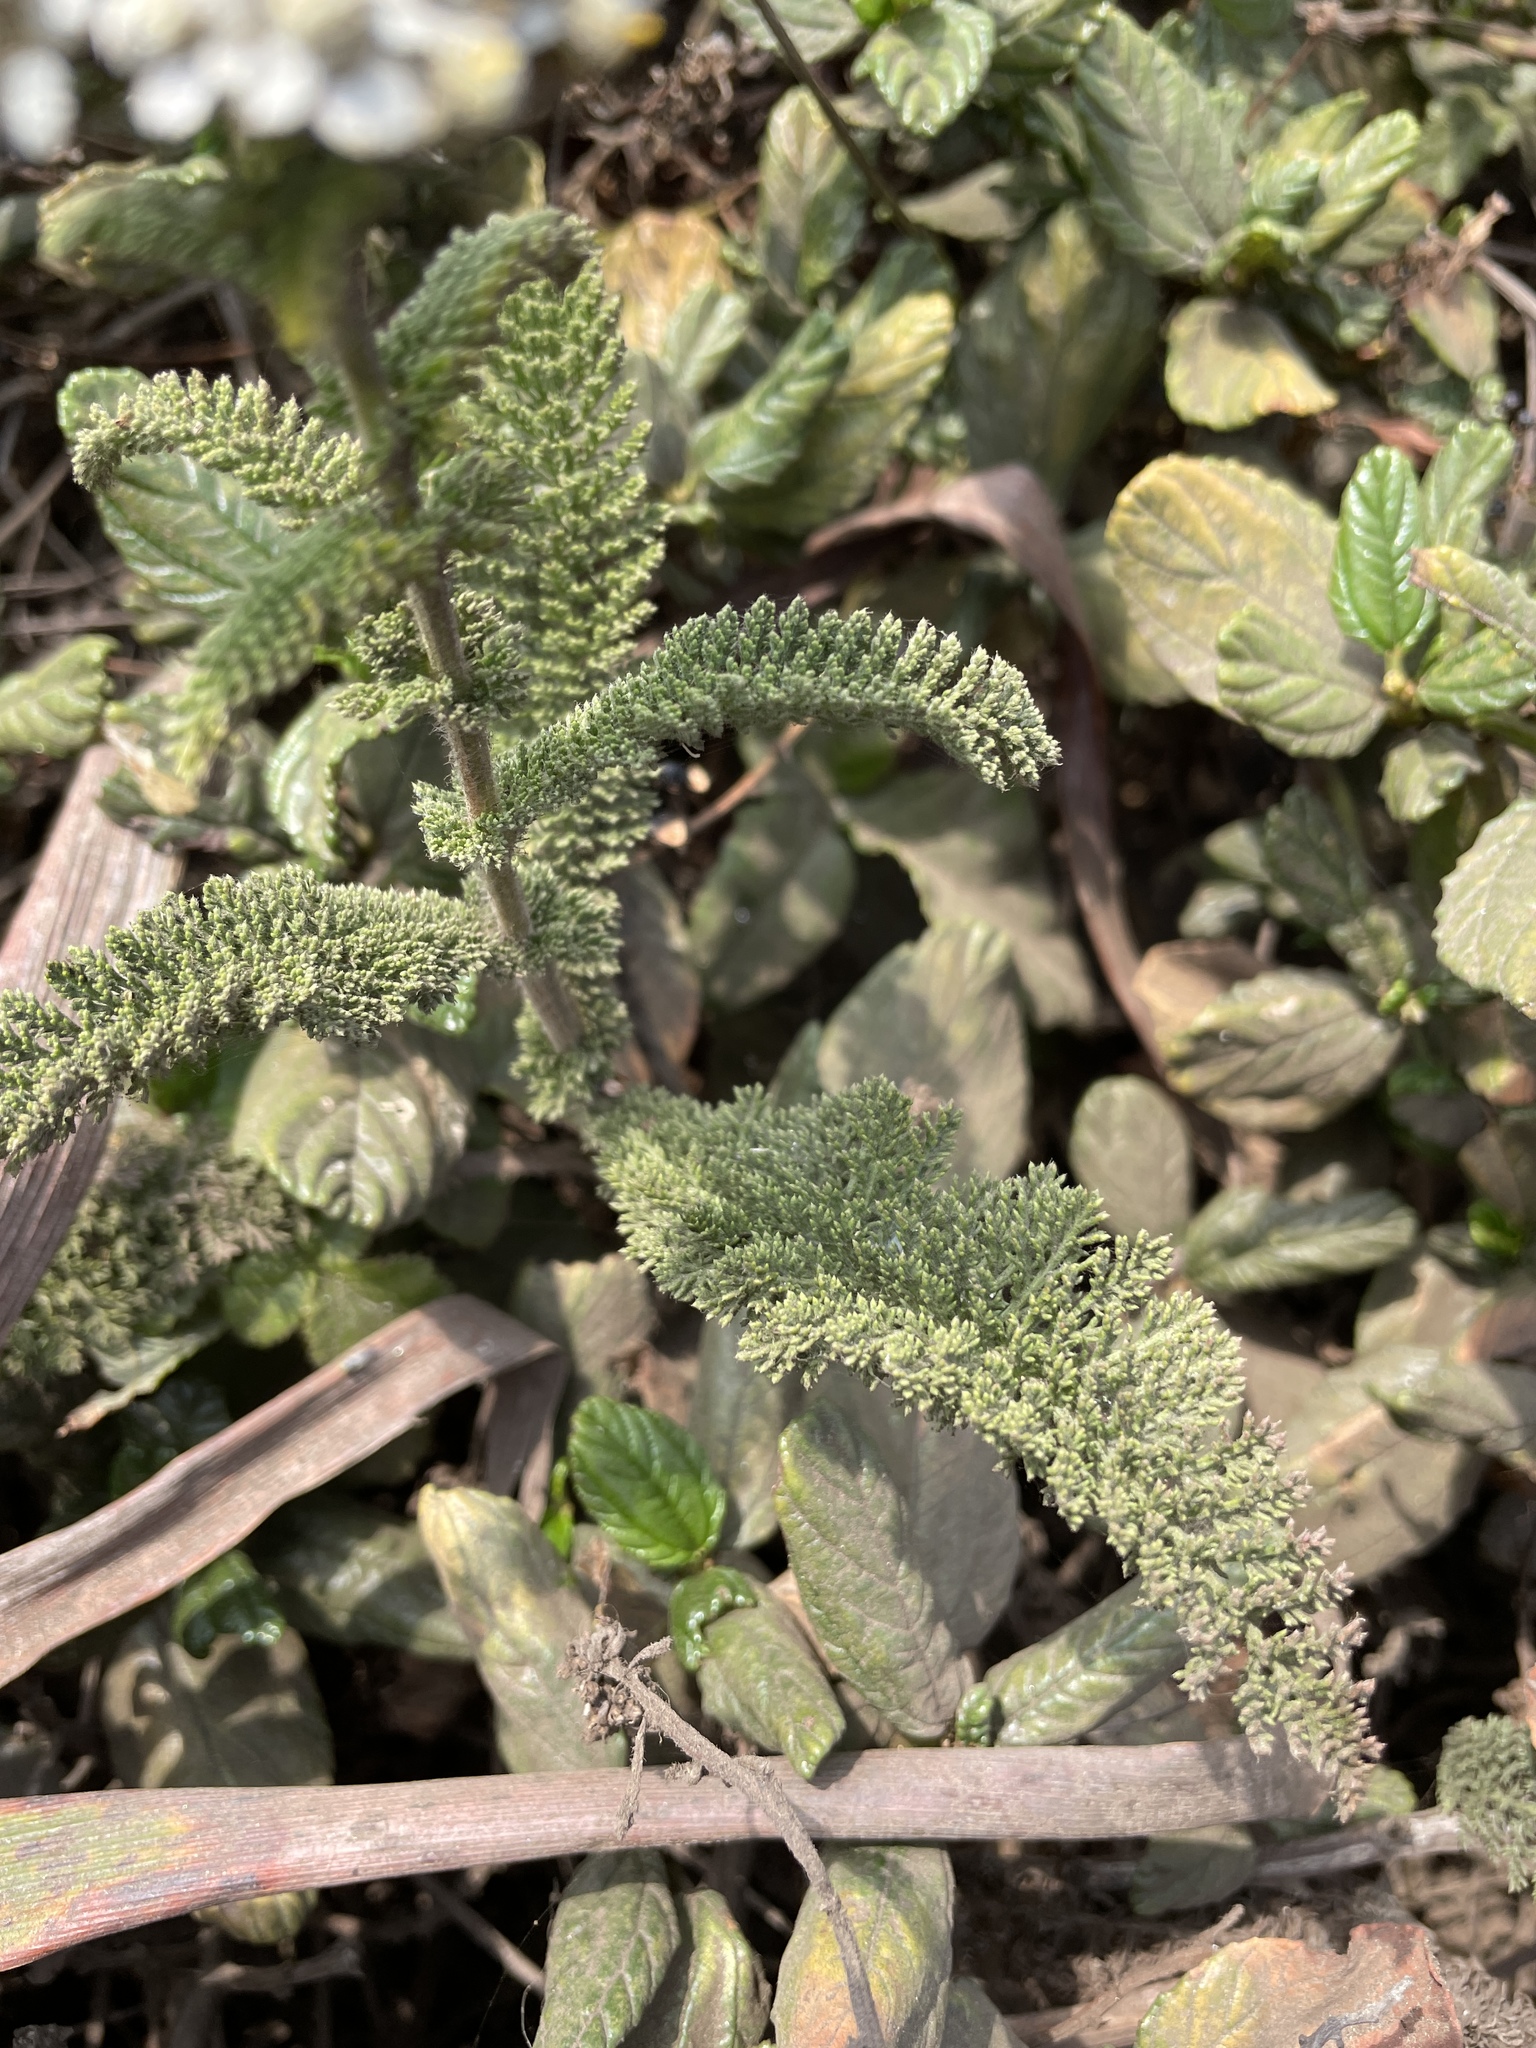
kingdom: Plantae
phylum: Tracheophyta
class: Magnoliopsida
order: Asterales
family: Asteraceae
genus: Achillea
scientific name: Achillea millefolium
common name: Yarrow
